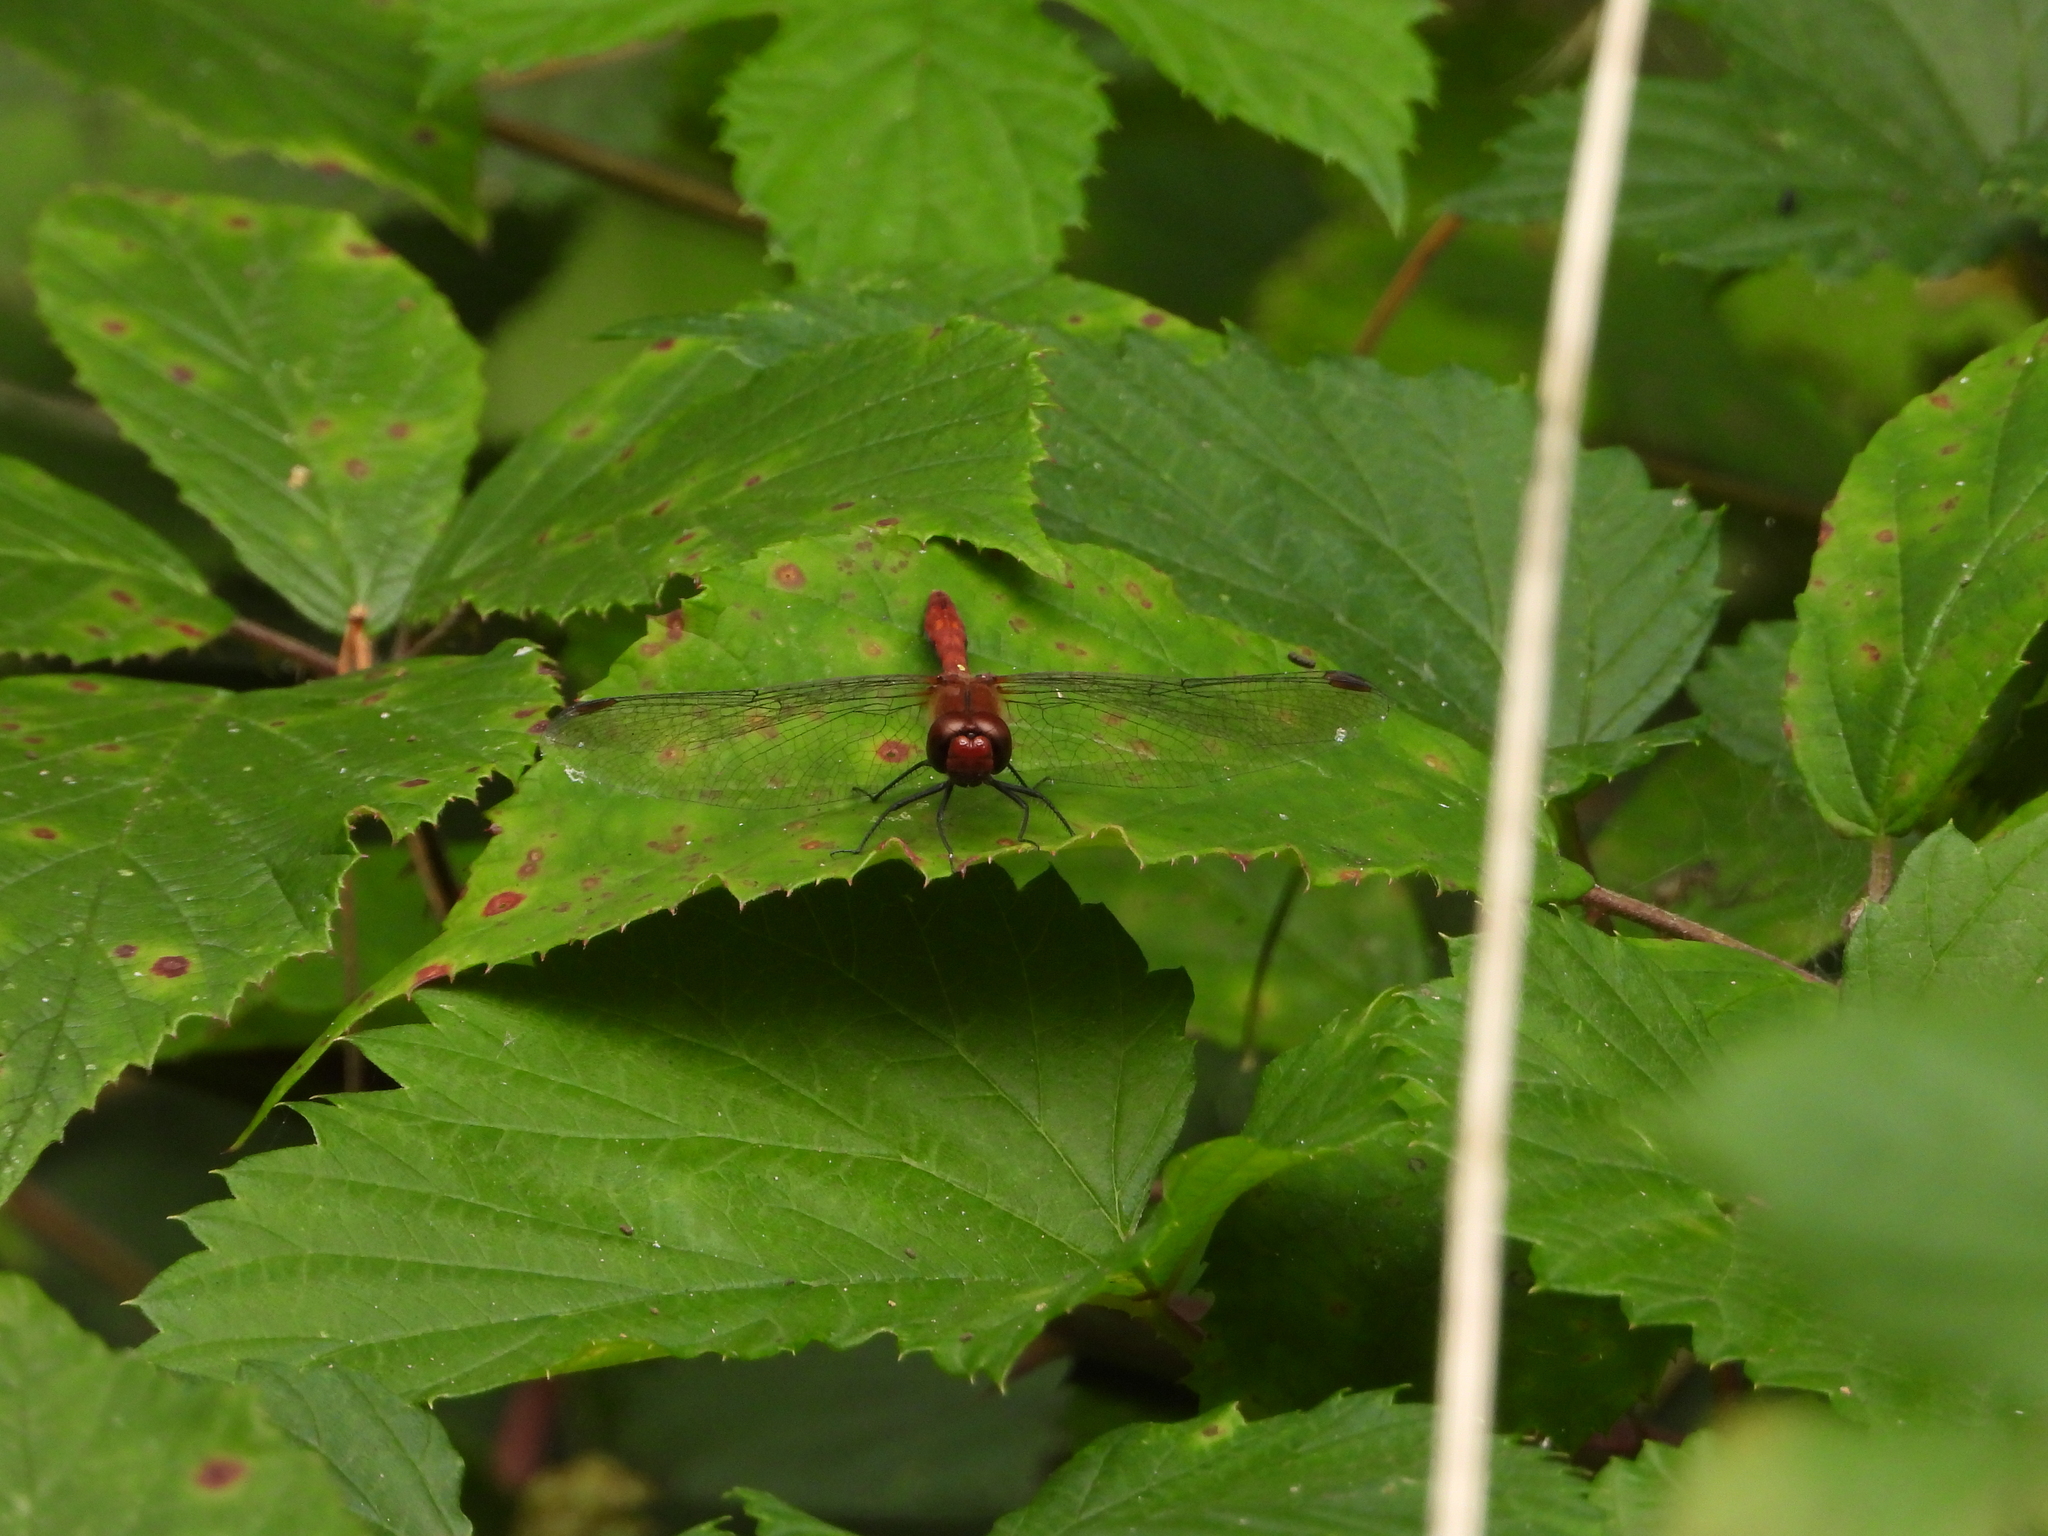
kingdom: Animalia
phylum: Arthropoda
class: Insecta
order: Odonata
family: Libellulidae
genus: Sympetrum
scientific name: Sympetrum sanguineum
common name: Ruddy darter
